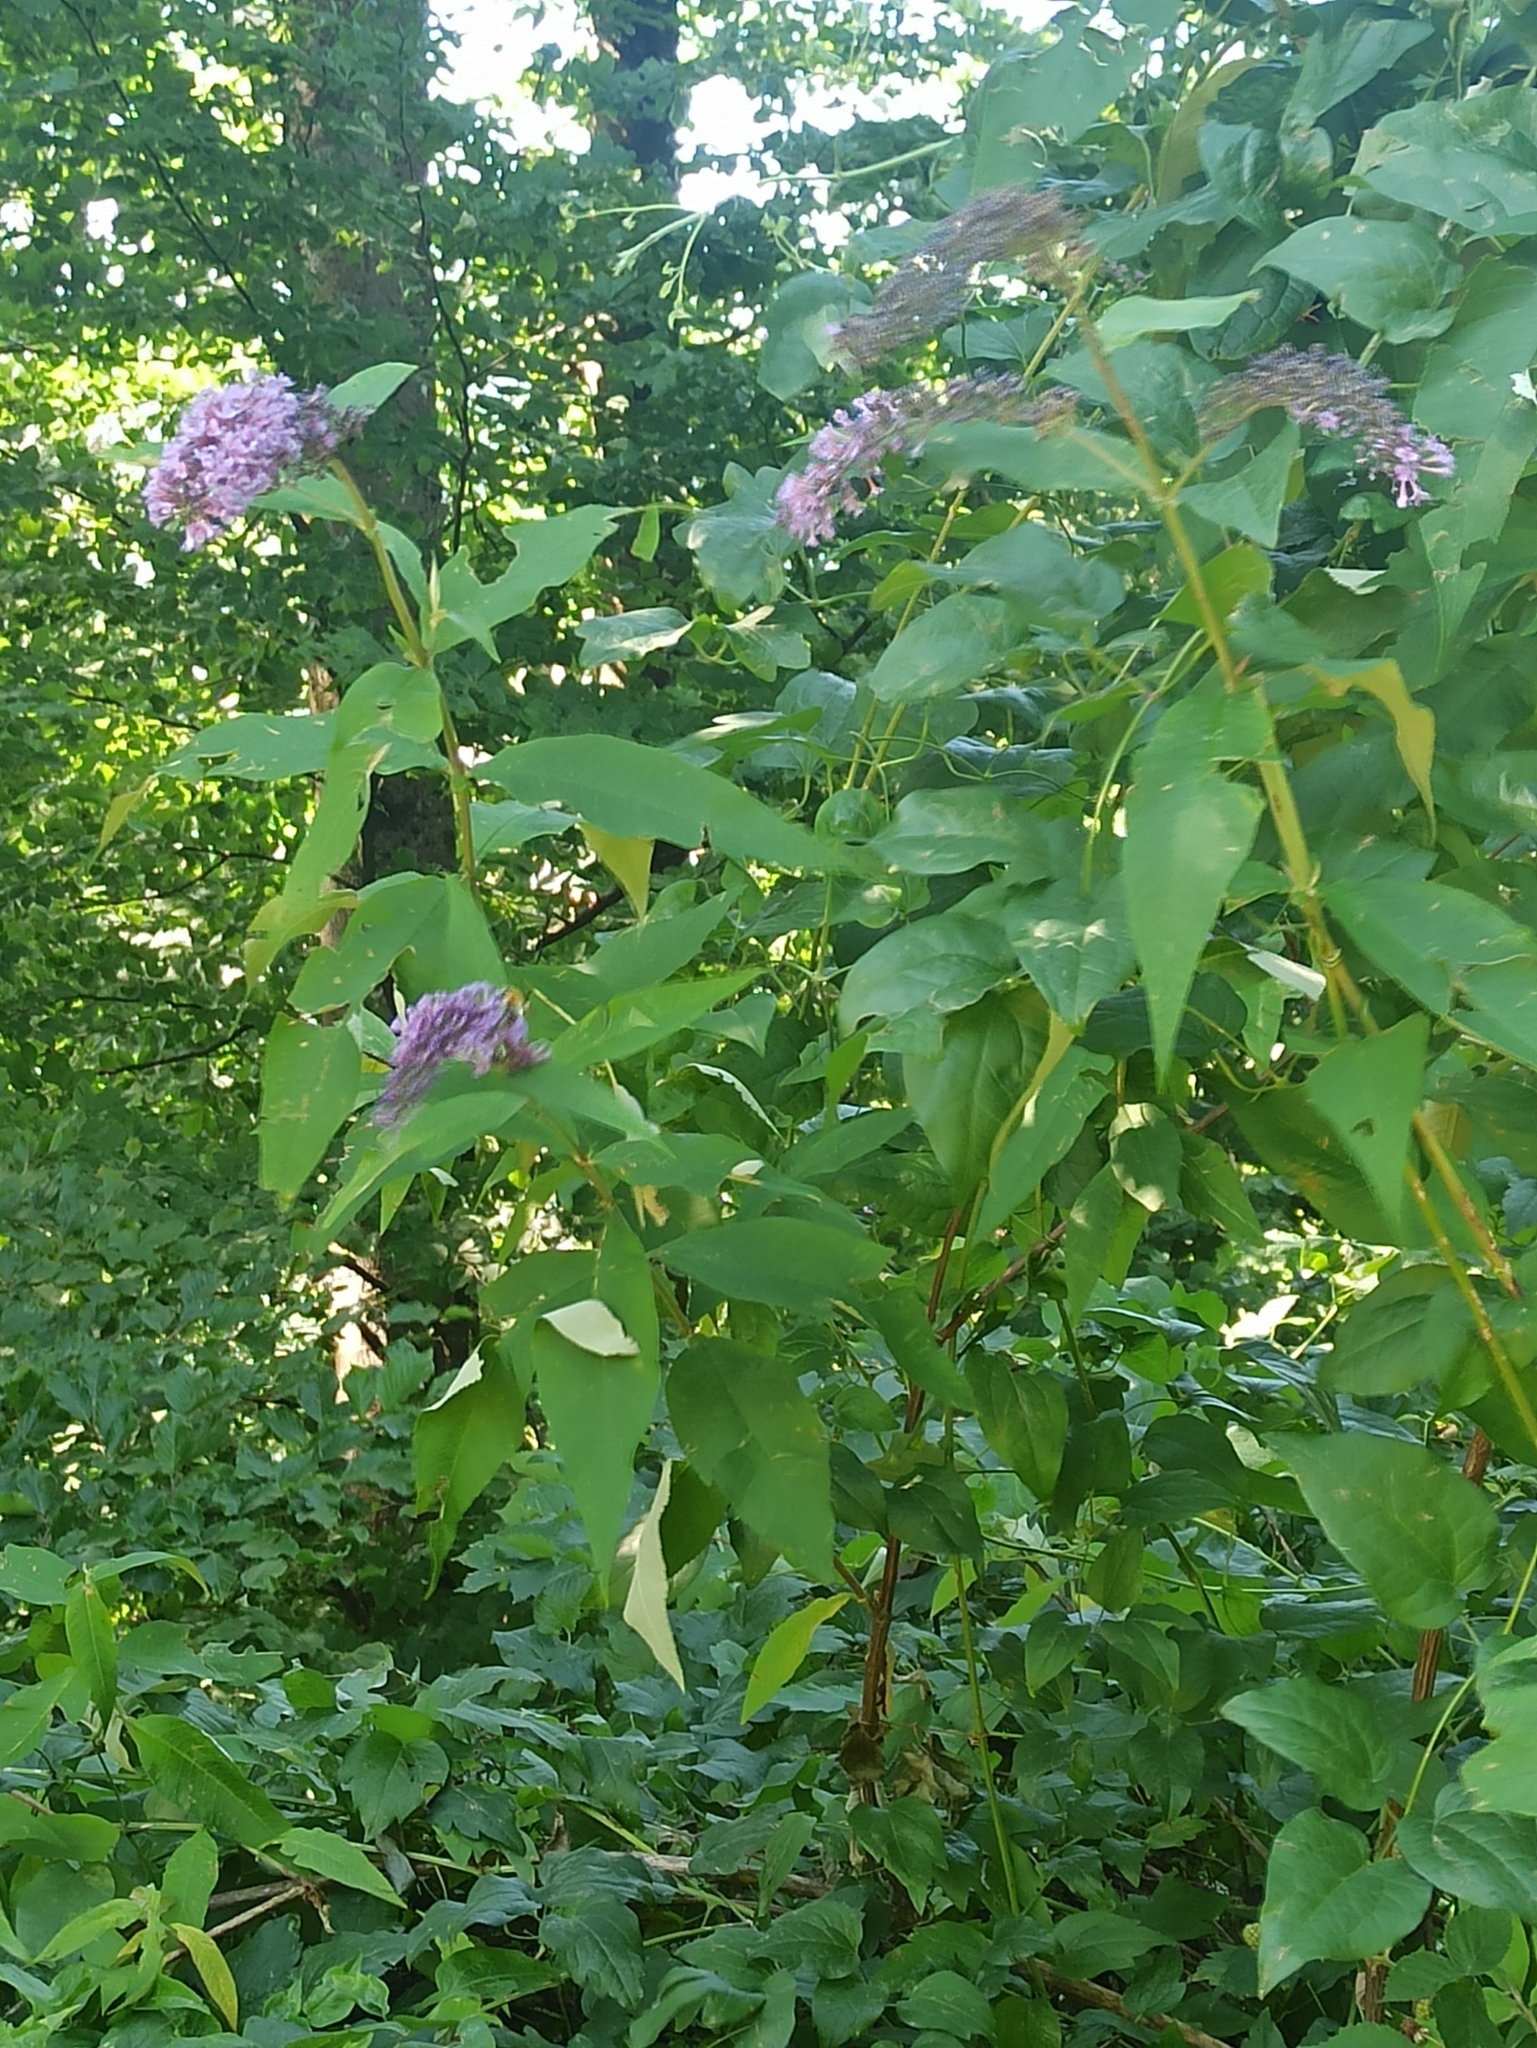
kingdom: Plantae
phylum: Tracheophyta
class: Magnoliopsida
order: Lamiales
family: Scrophulariaceae
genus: Buddleja
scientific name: Buddleja davidii
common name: Butterfly-bush
